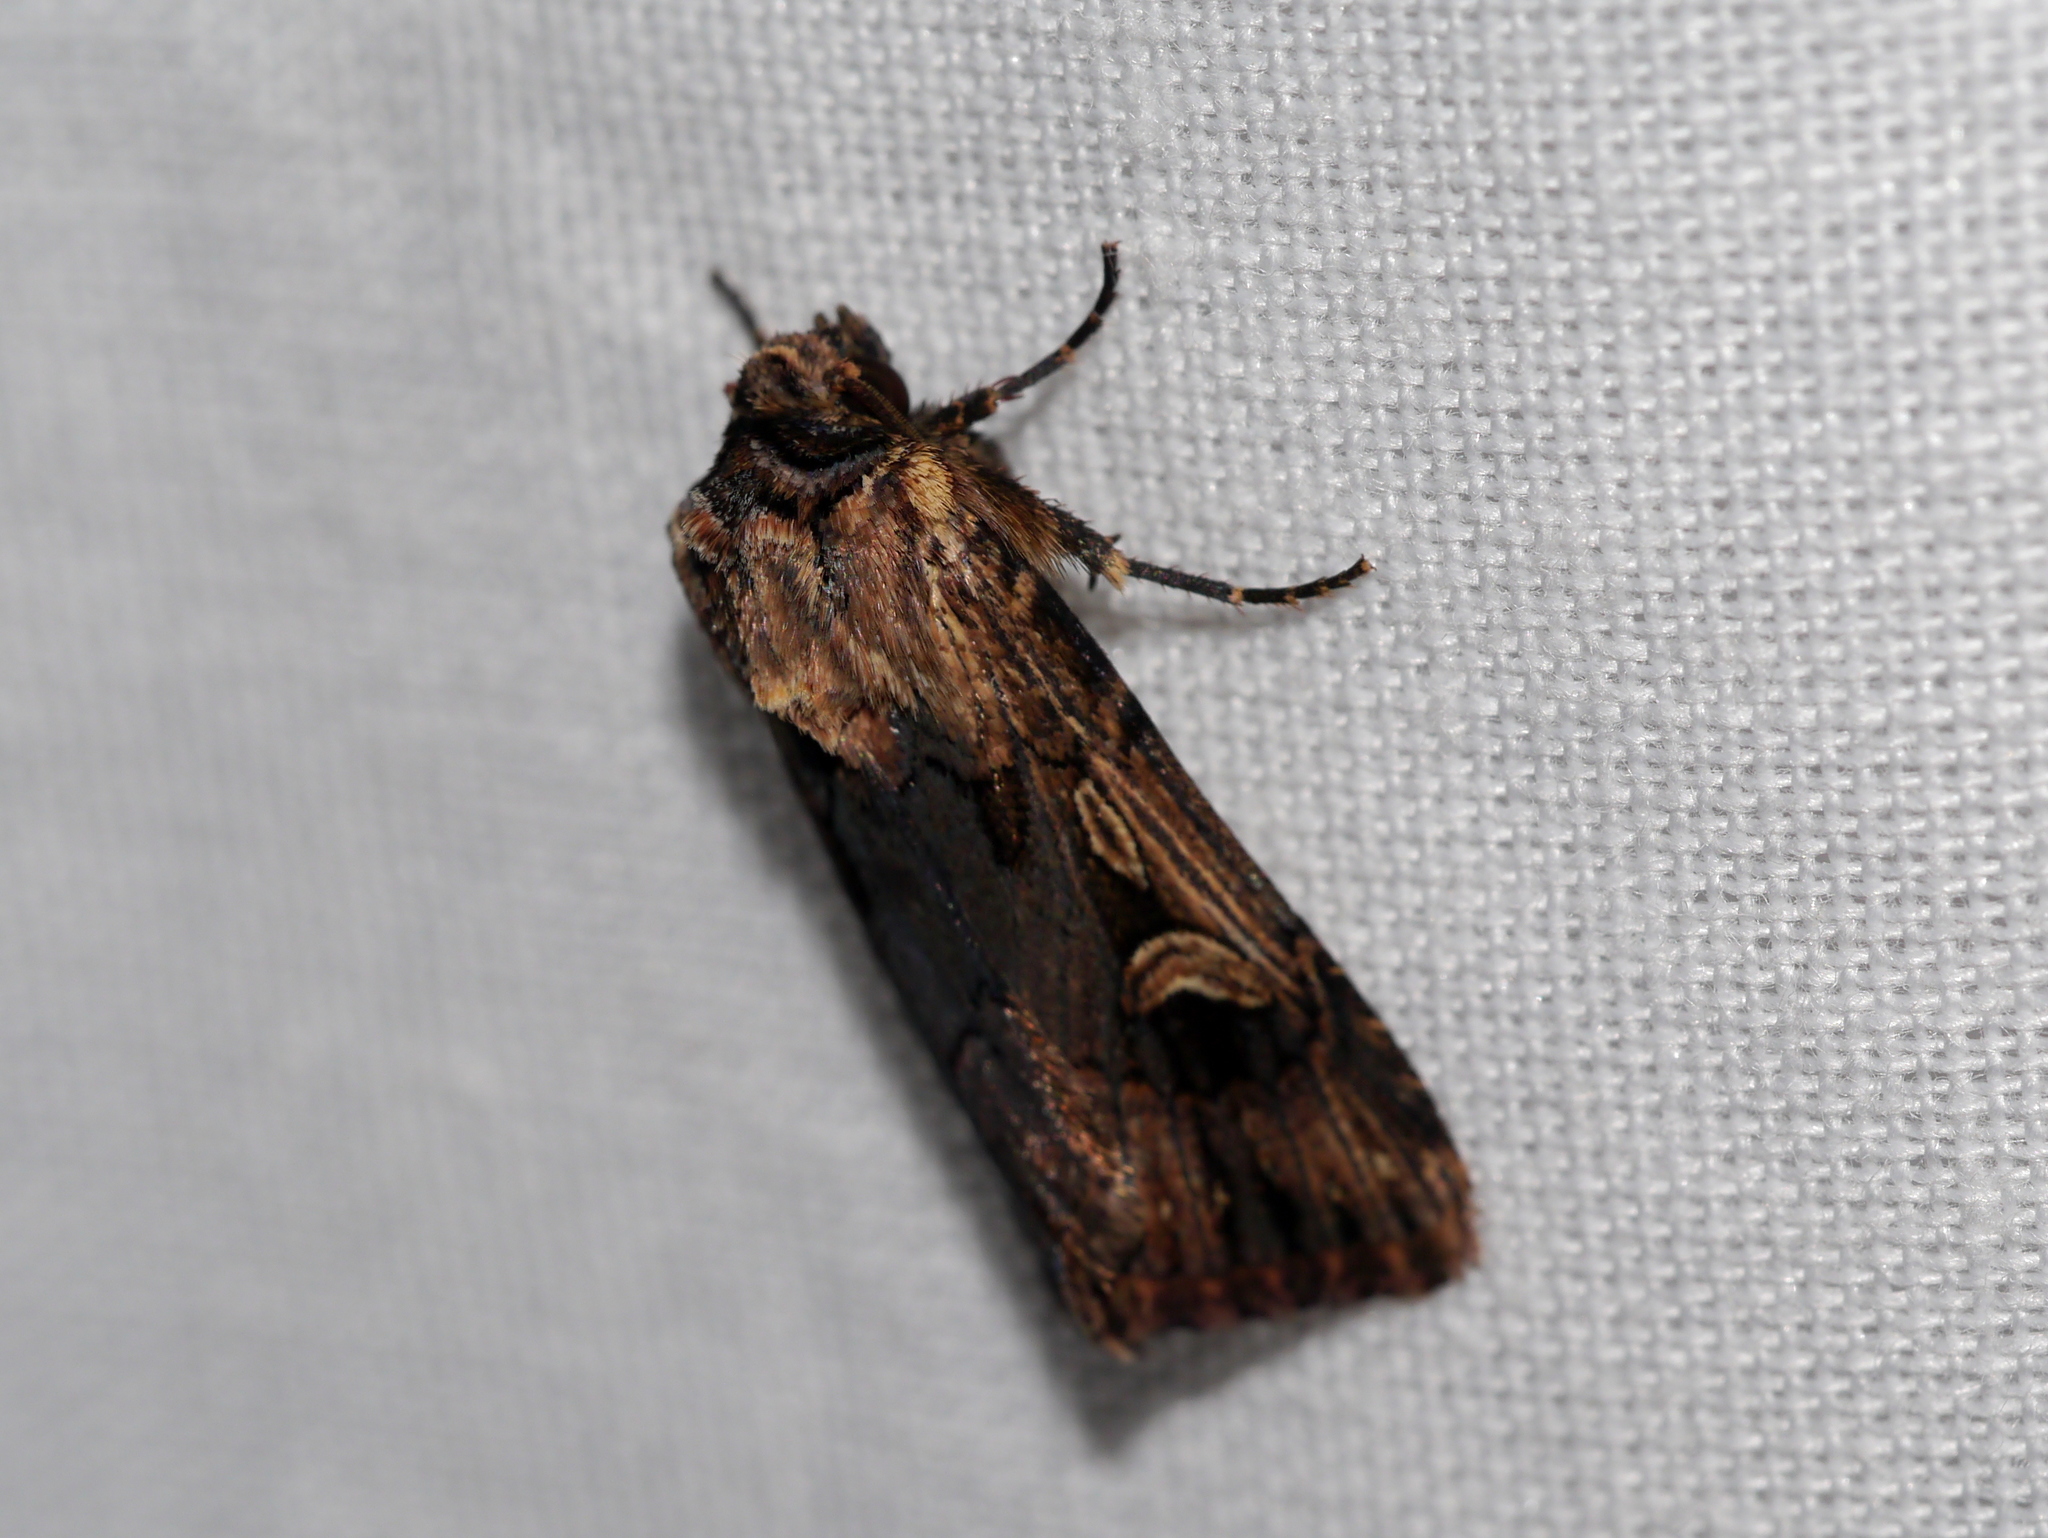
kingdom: Animalia
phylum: Arthropoda
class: Insecta
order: Lepidoptera
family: Noctuidae
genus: Dichagyris
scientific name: Dichagyris cataclivis
